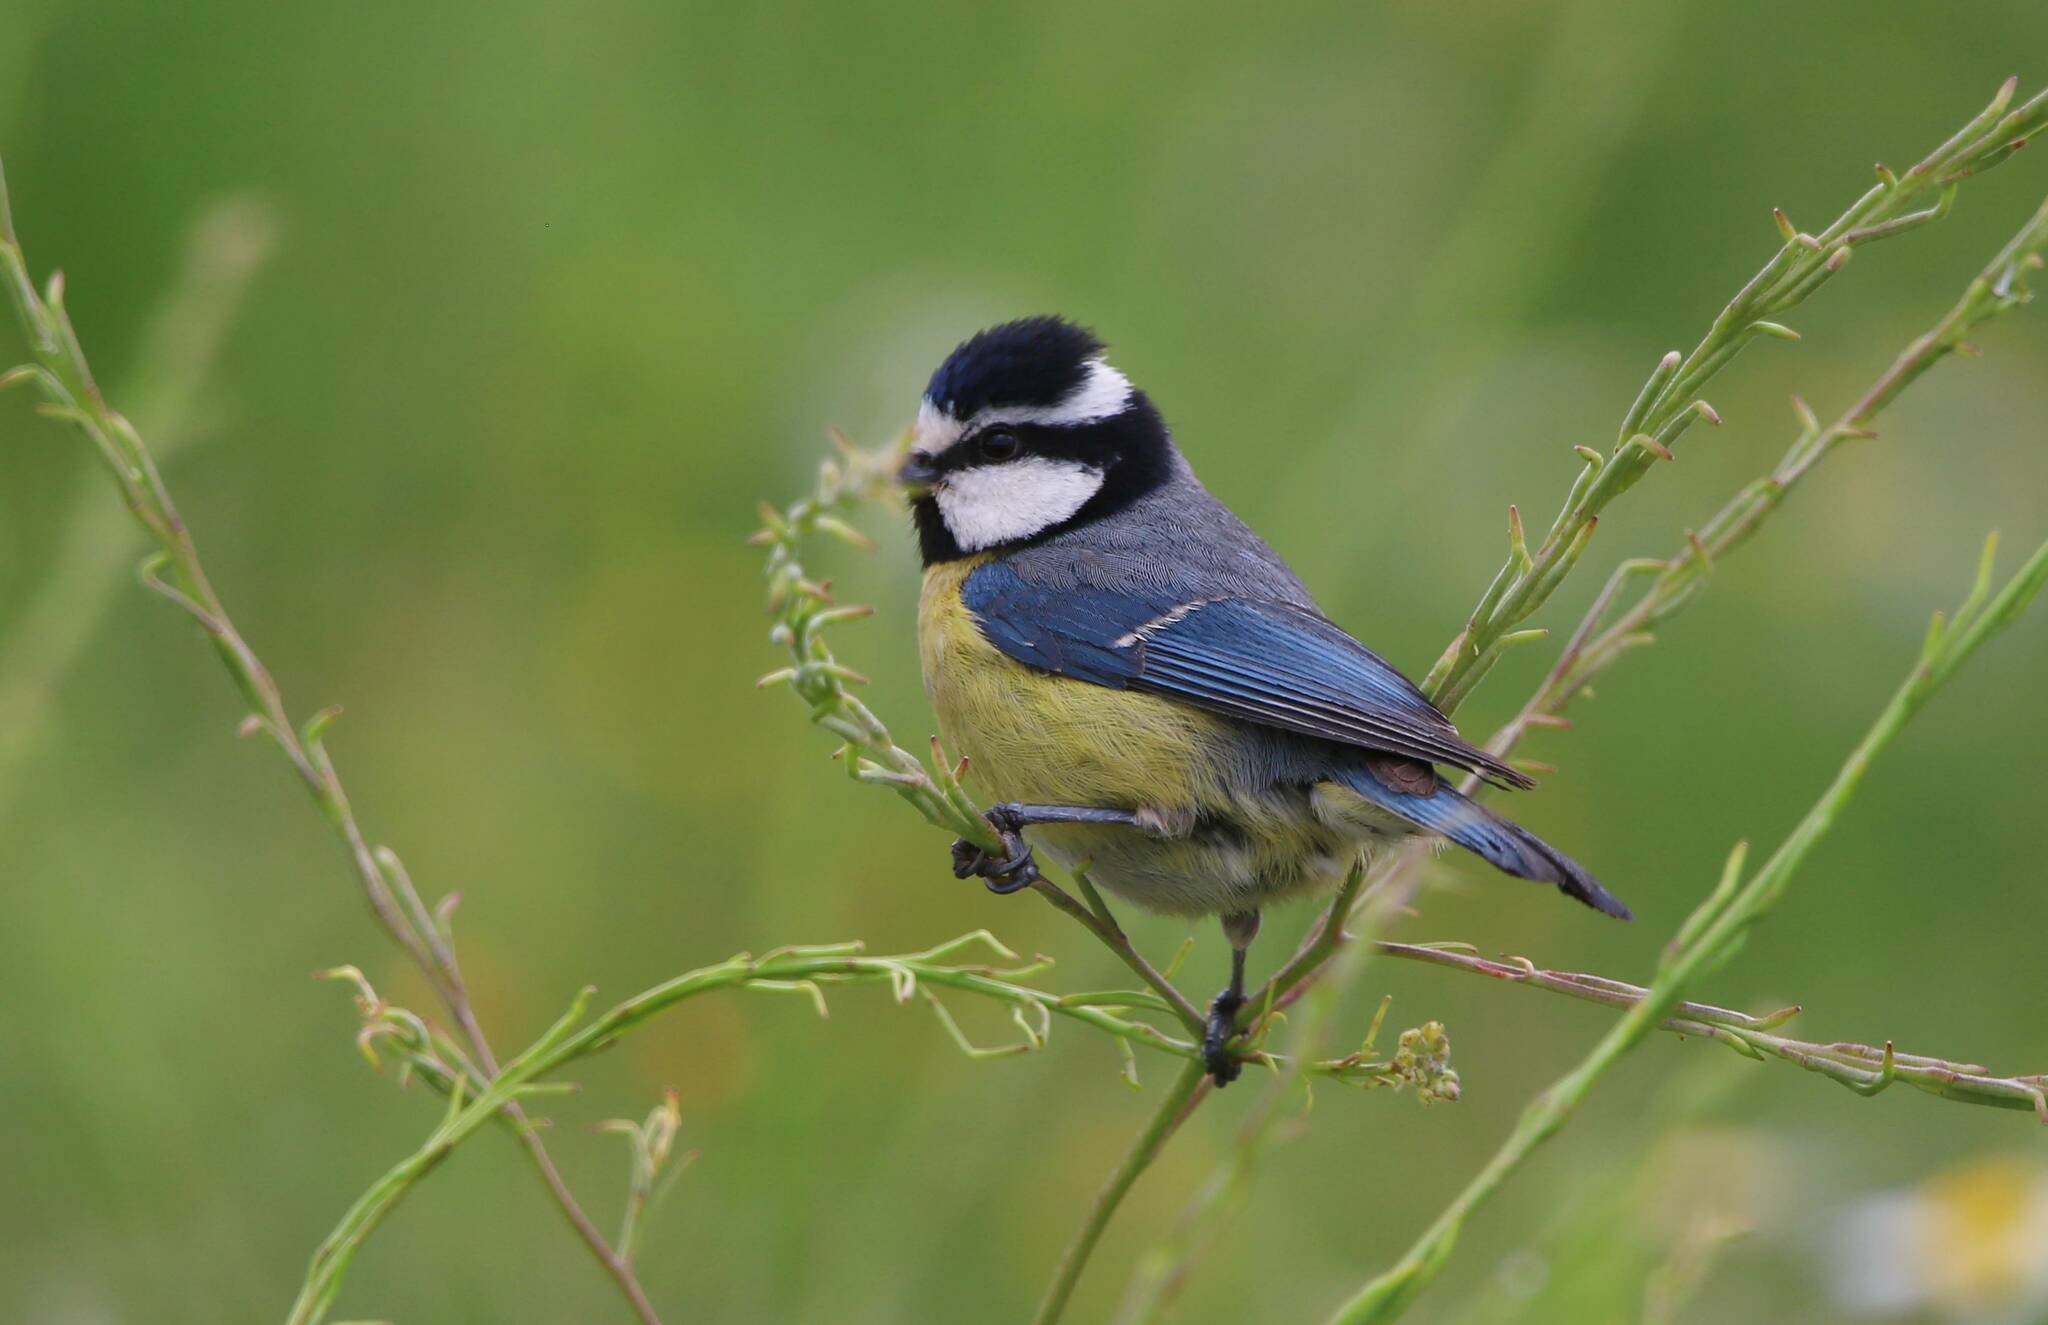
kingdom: Animalia
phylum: Chordata
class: Aves
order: Passeriformes
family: Paridae
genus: Cyanistes
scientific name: Cyanistes teneriffae
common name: African blue tit
